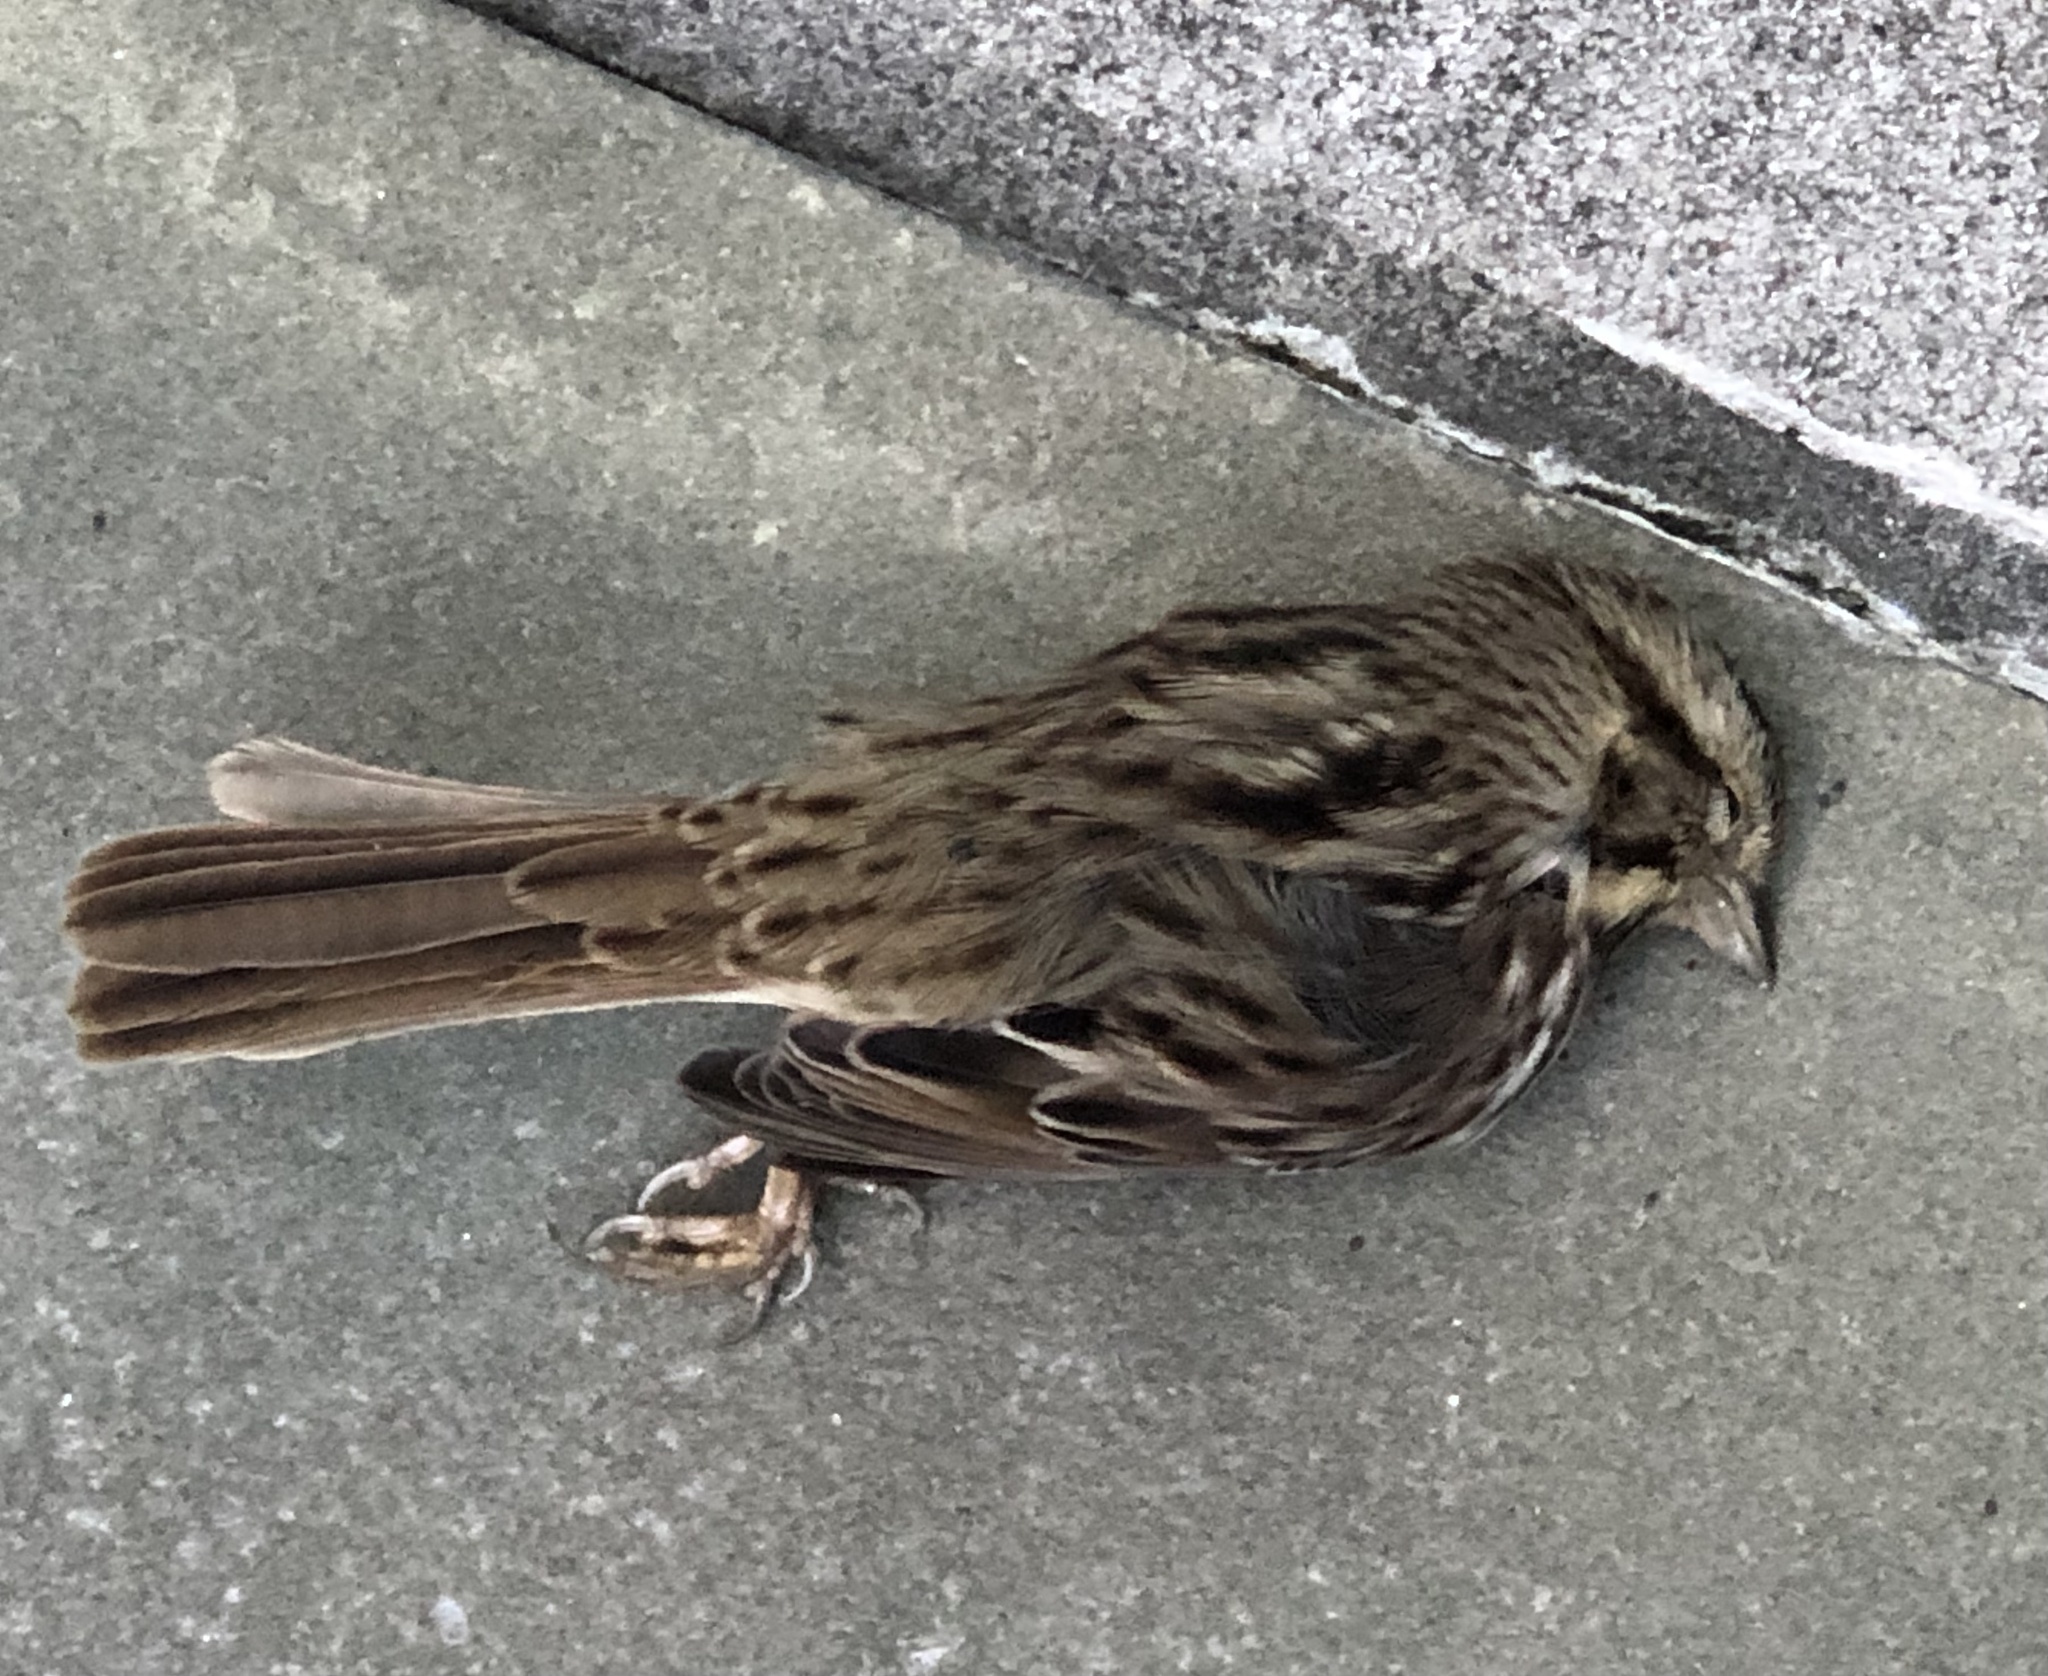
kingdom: Animalia
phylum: Chordata
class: Aves
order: Passeriformes
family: Passerellidae
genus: Melospiza
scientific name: Melospiza melodia
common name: Song sparrow
